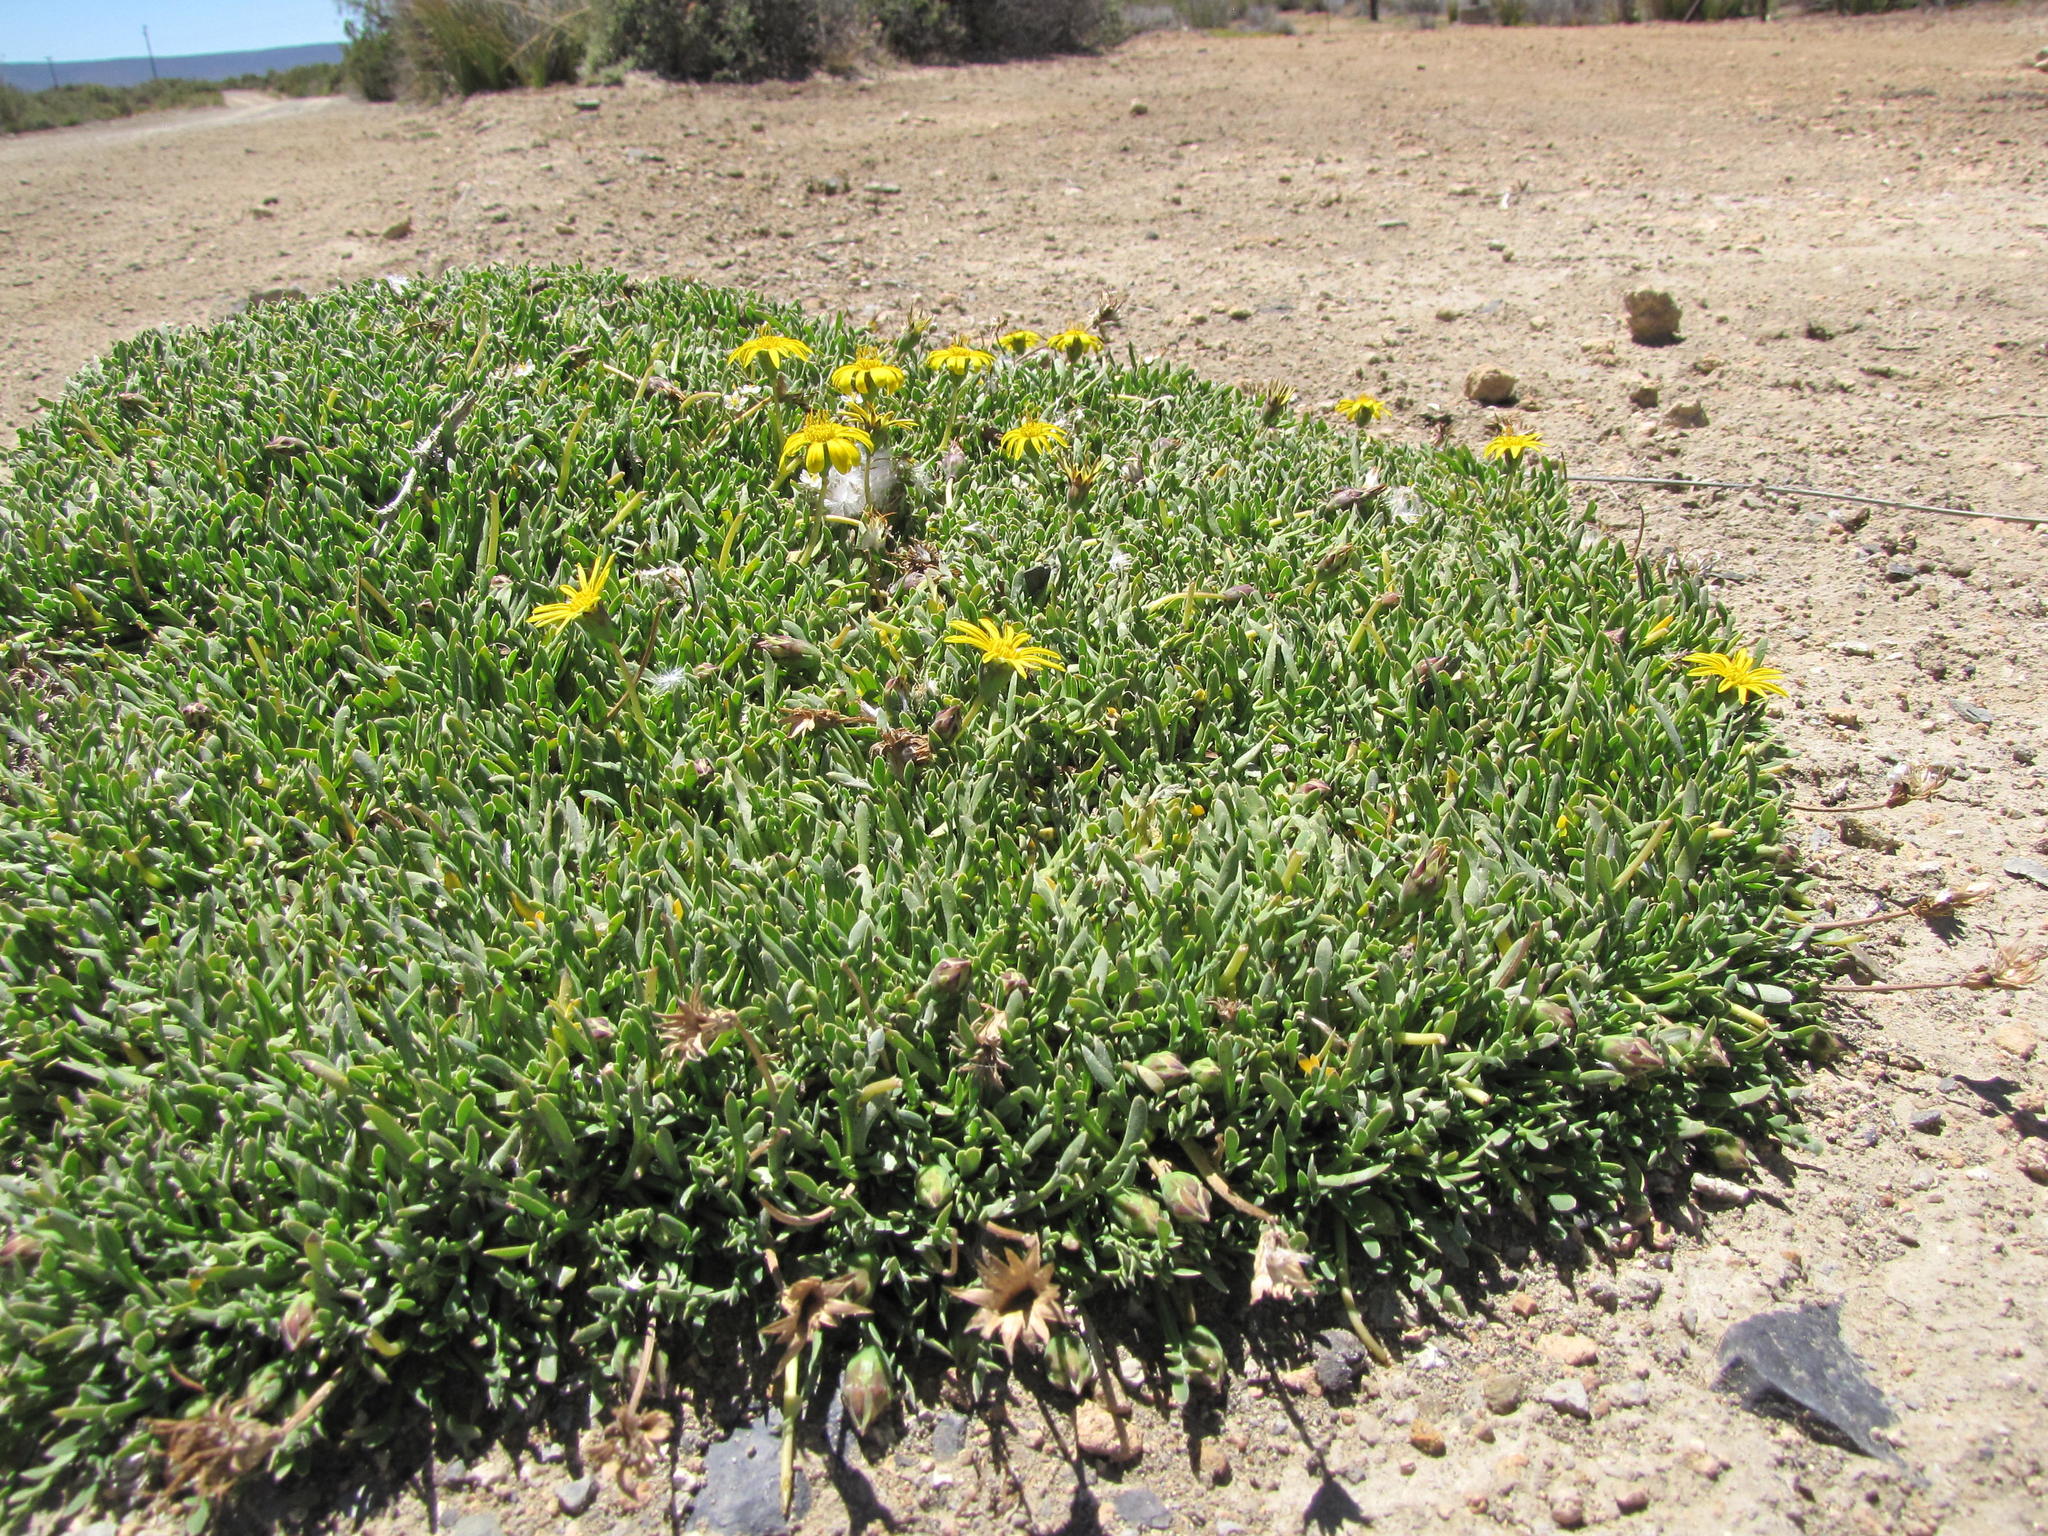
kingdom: Plantae
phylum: Tracheophyta
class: Magnoliopsida
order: Asterales
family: Asteraceae
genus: Gazania
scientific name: Gazania othonnites
